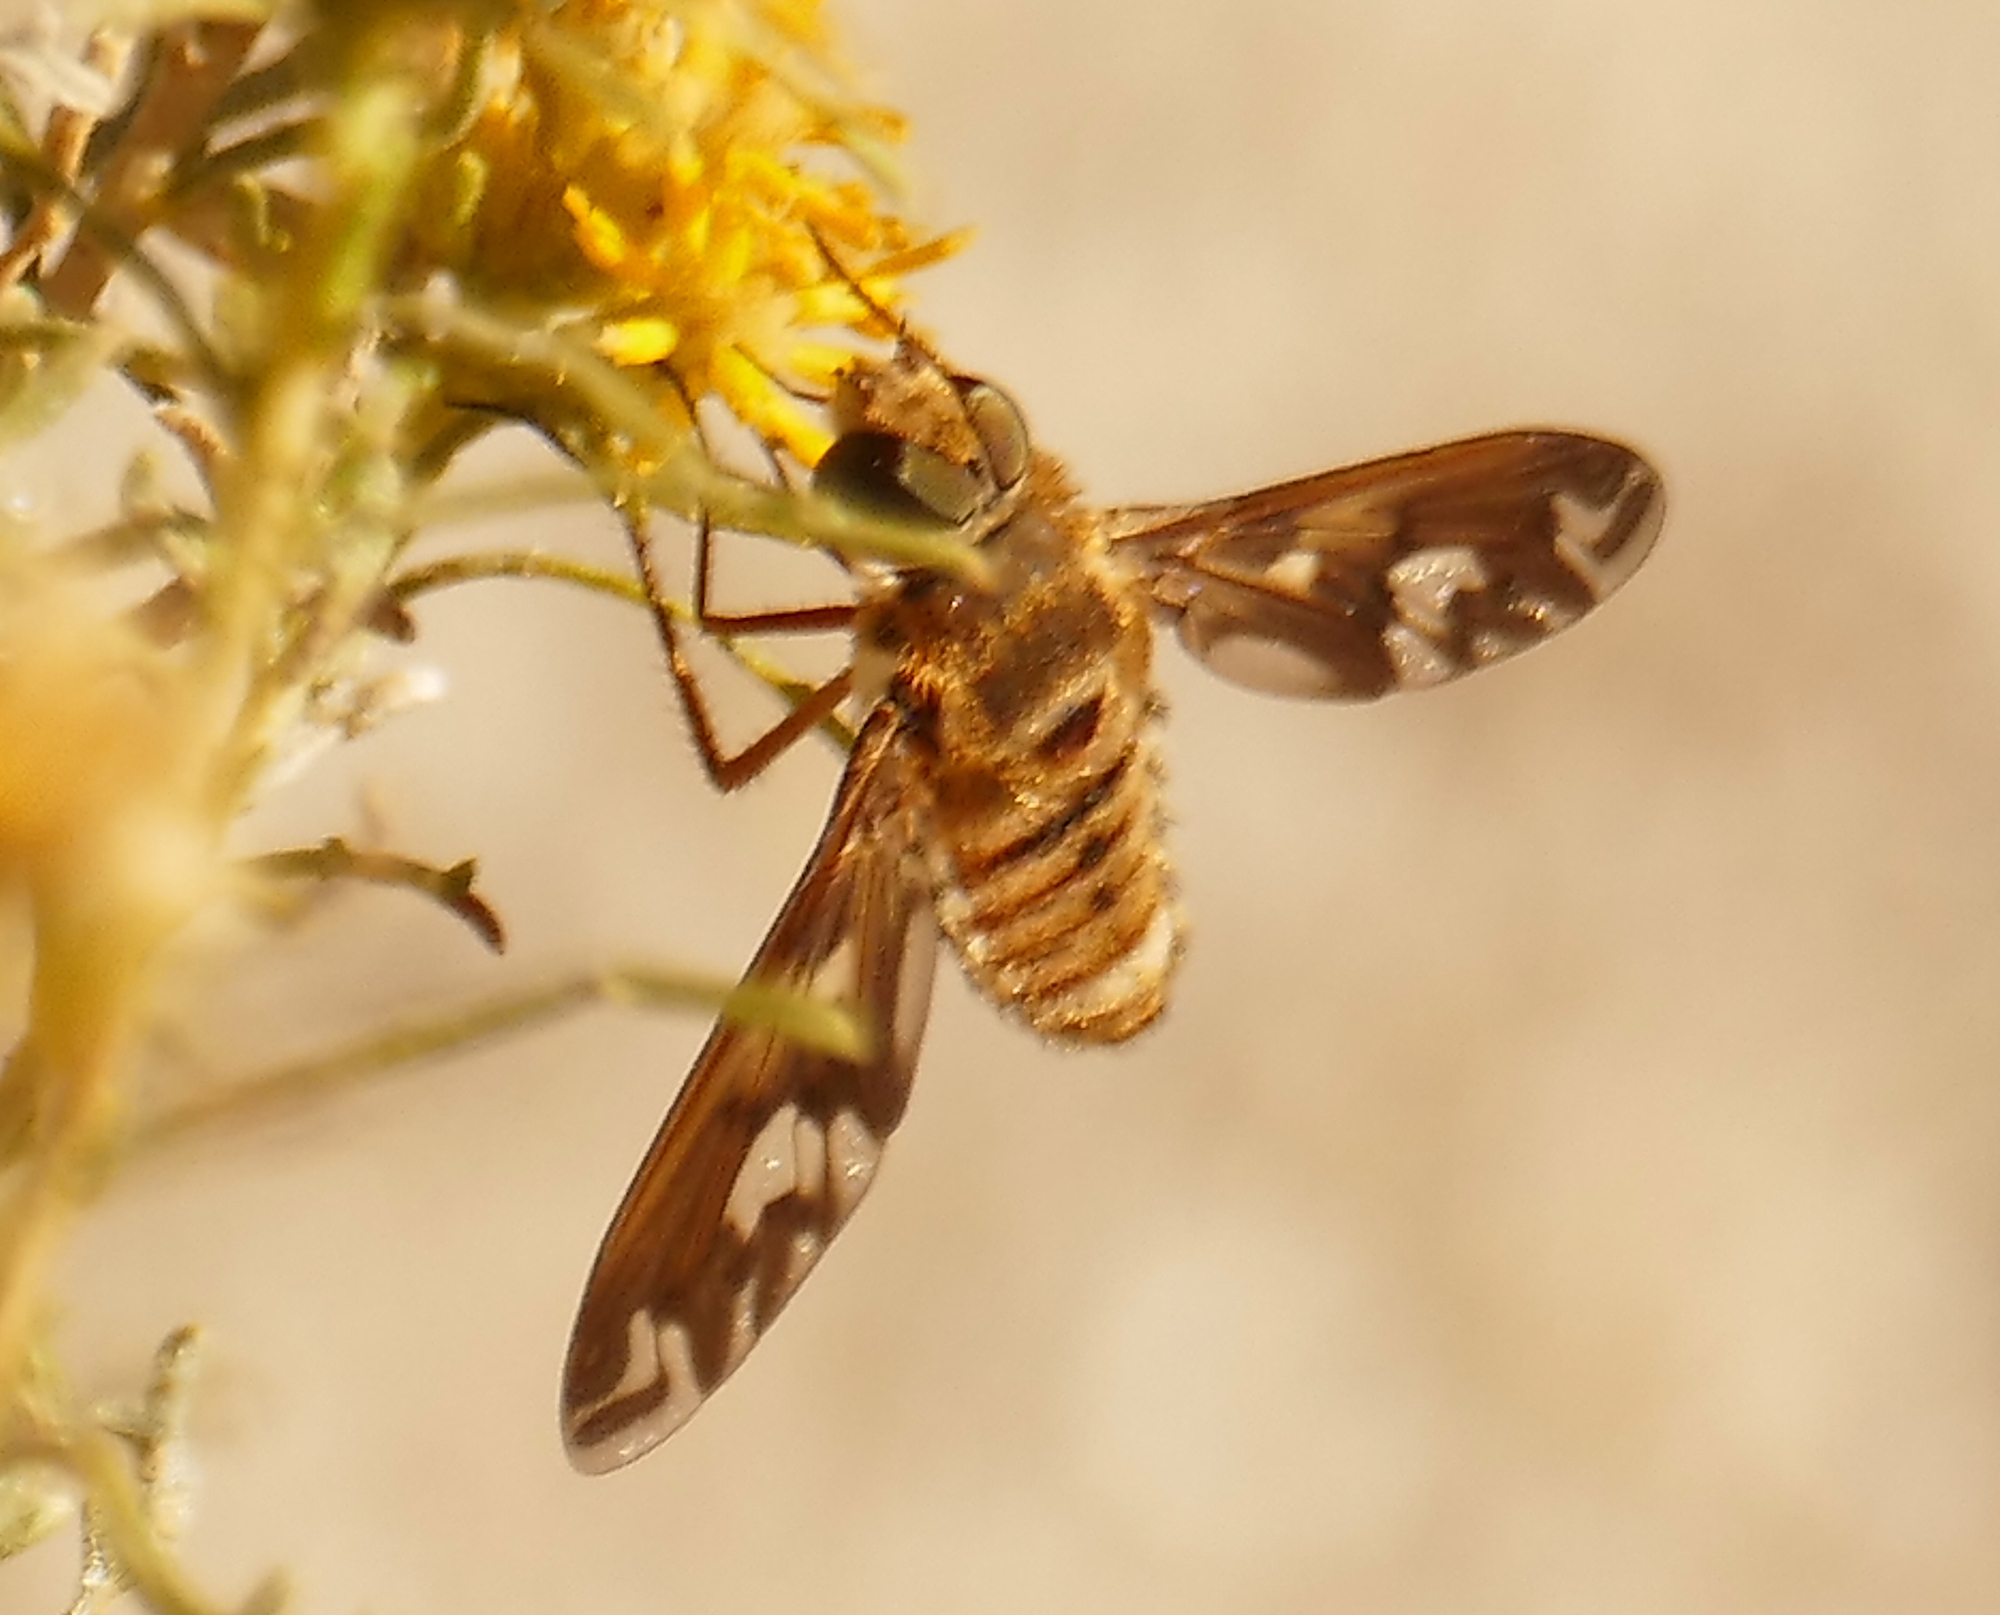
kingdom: Animalia
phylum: Arthropoda
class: Insecta
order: Diptera
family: Bombyliidae
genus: Poecilanthrax
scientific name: Poecilanthrax willistonii
